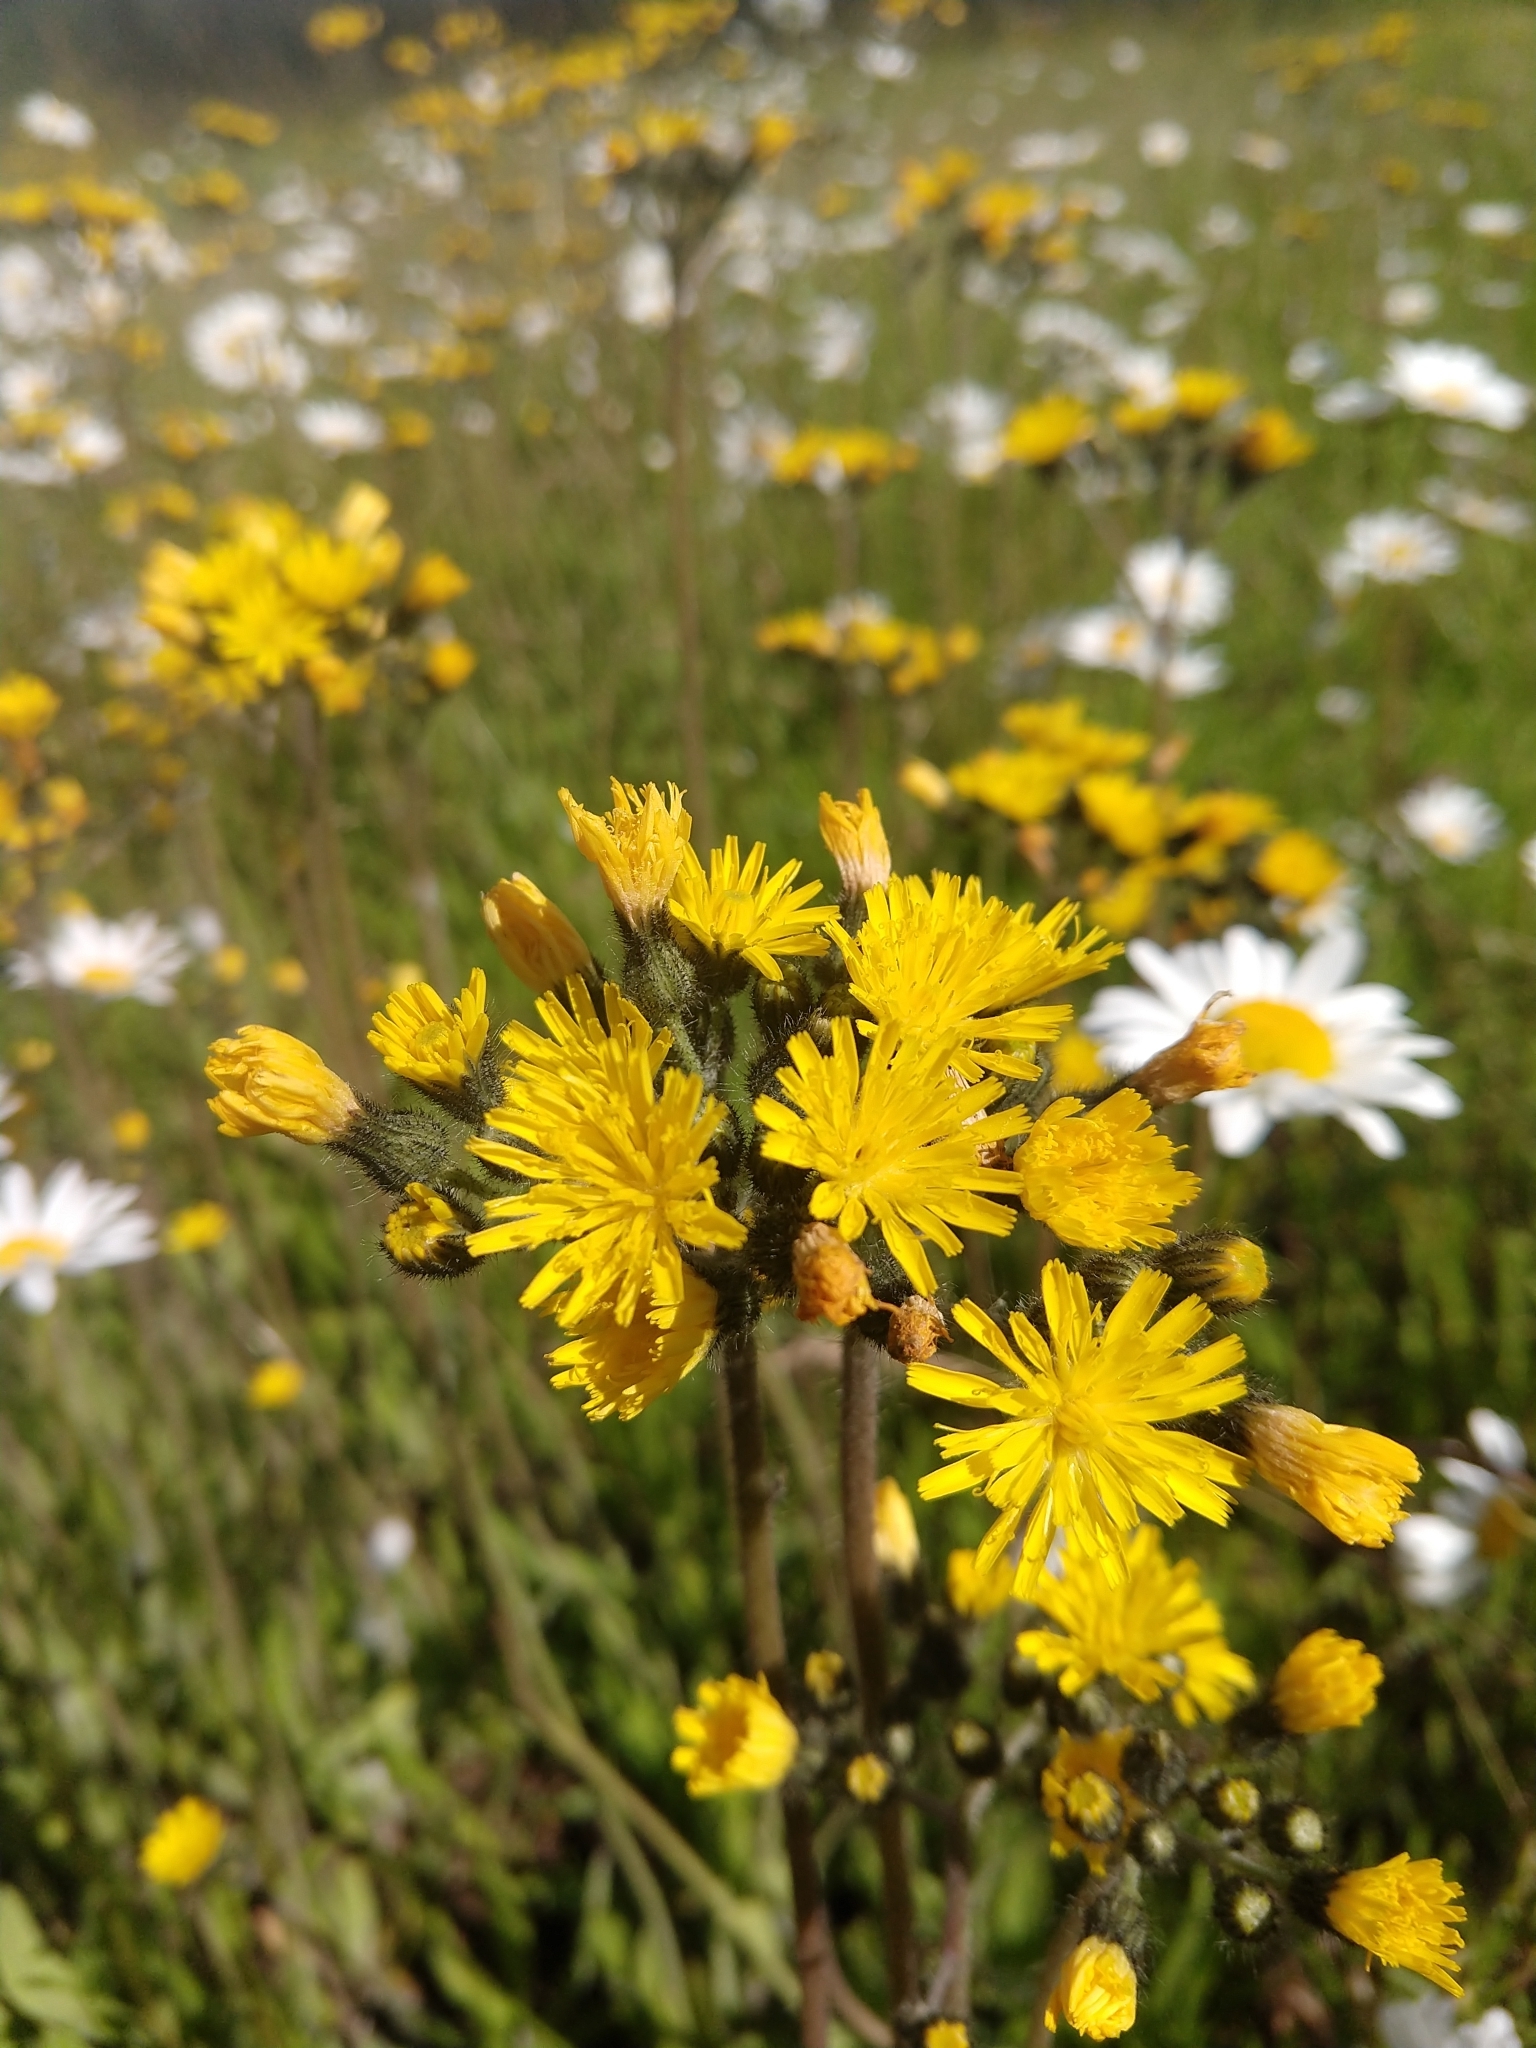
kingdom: Plantae
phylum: Tracheophyta
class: Magnoliopsida
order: Asterales
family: Asteraceae
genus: Pilosella
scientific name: Pilosella caespitosa
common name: Yellow fox-and-cubs
